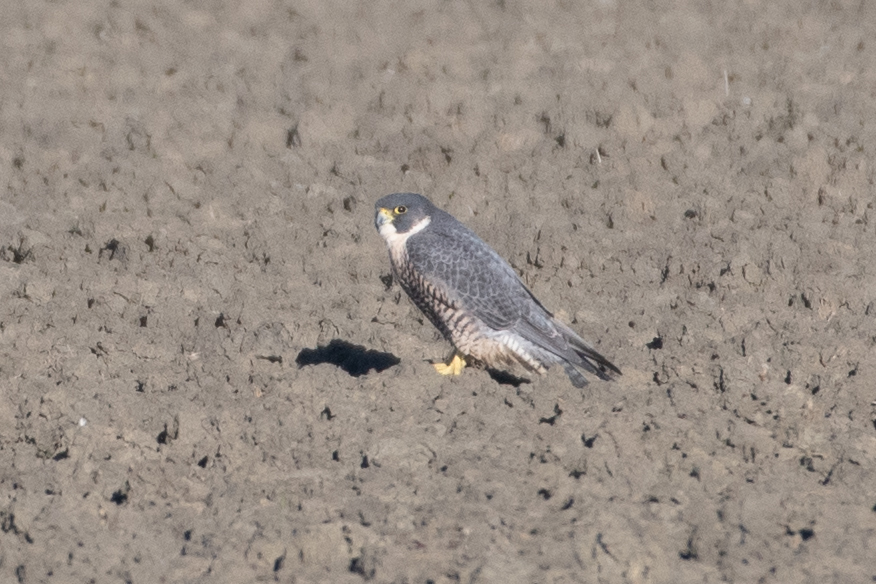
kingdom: Animalia
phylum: Chordata
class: Aves
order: Falconiformes
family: Falconidae
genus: Falco
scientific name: Falco peregrinus
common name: Peregrine falcon
